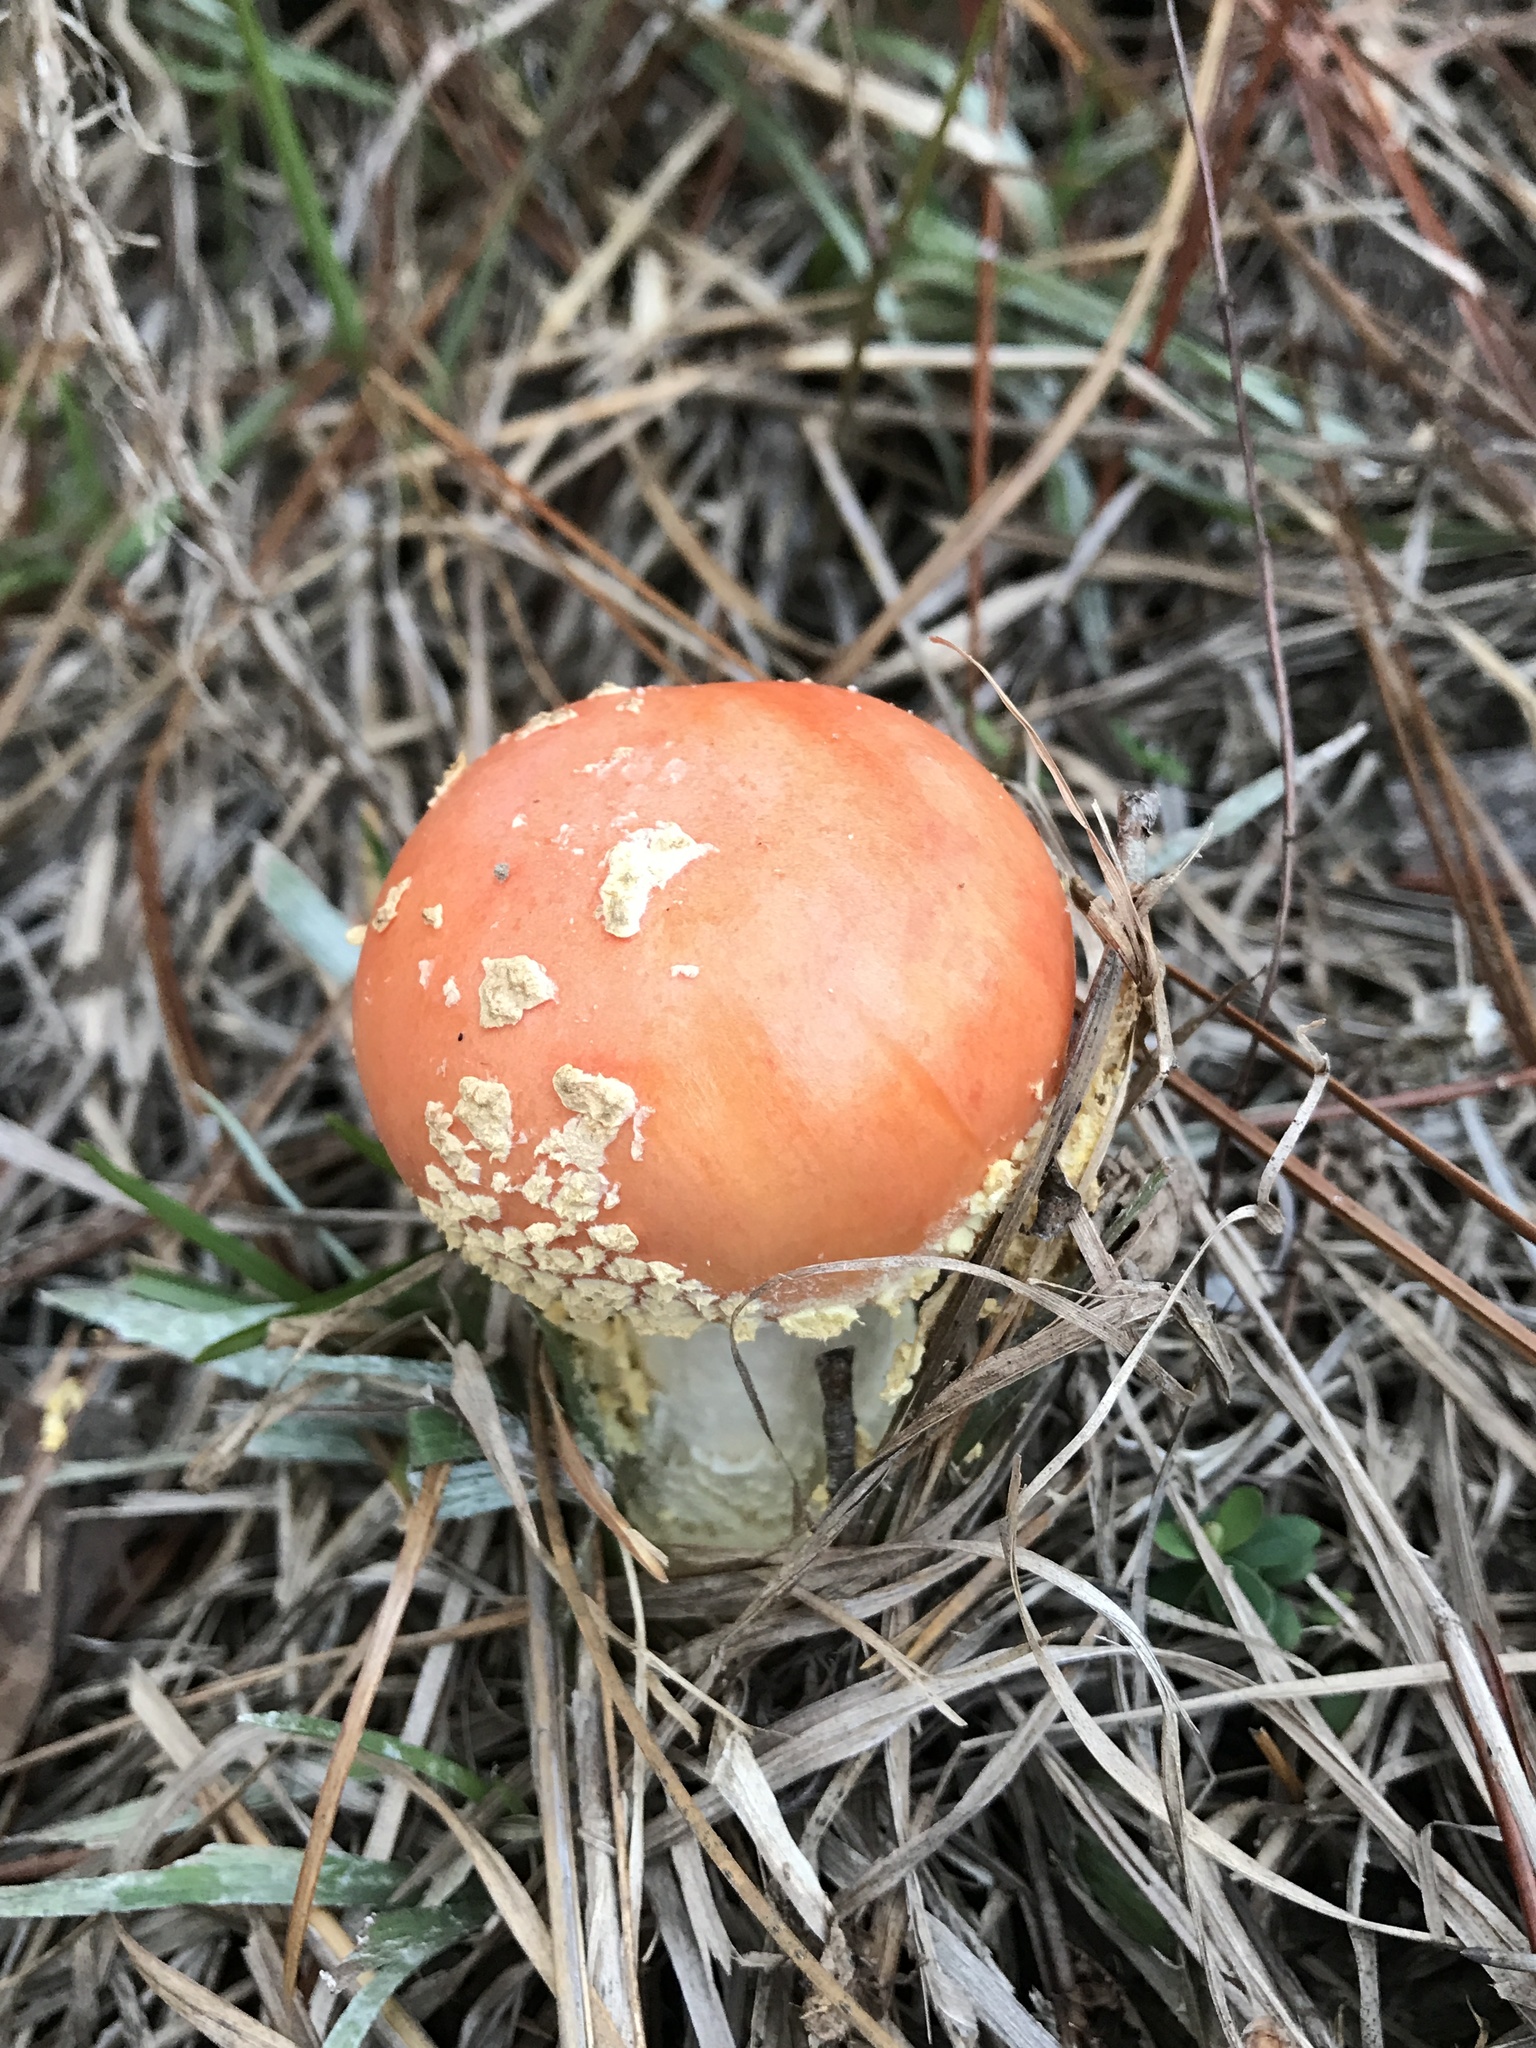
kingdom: Fungi
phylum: Basidiomycota
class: Agaricomycetes
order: Agaricales
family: Amanitaceae
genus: Amanita
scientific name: Amanita persicina
